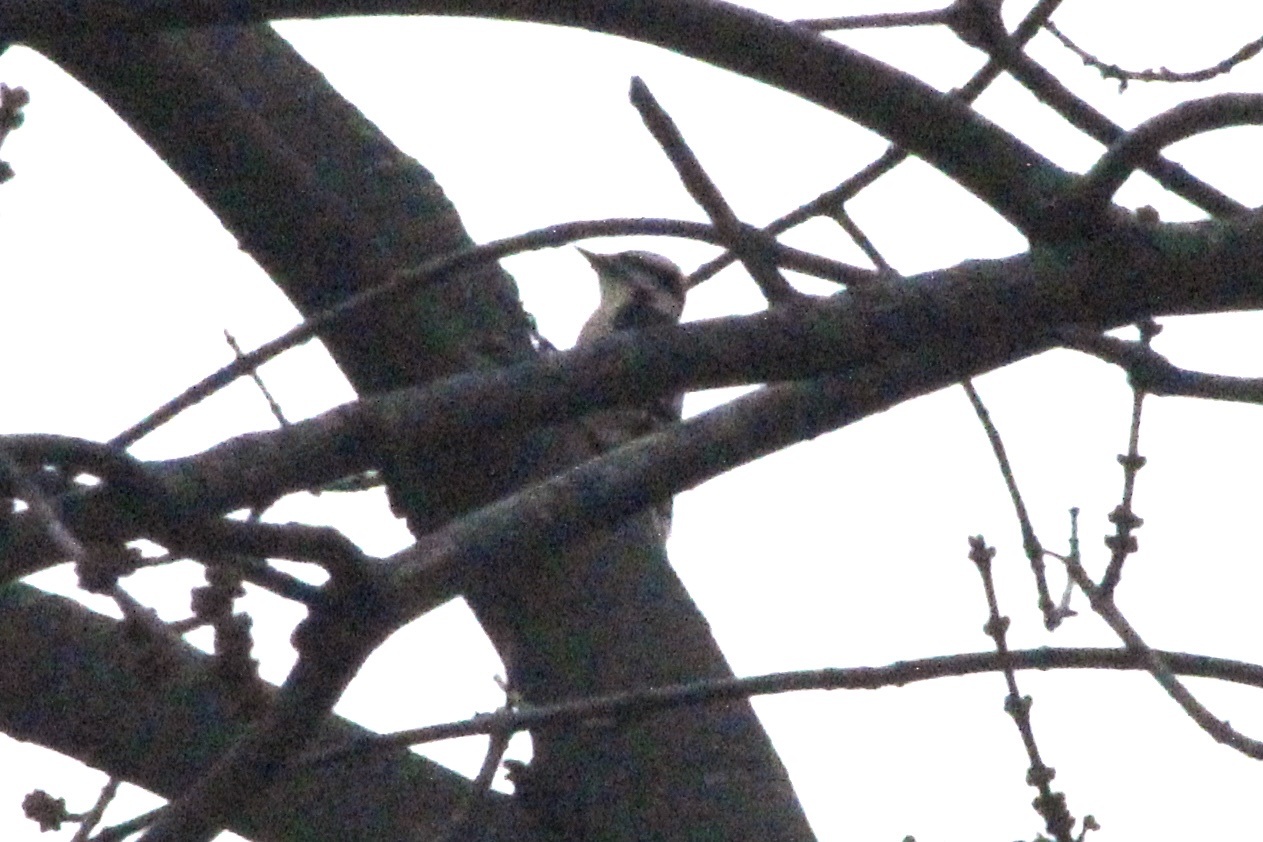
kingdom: Animalia
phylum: Chordata
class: Aves
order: Piciformes
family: Picidae
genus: Dryobates
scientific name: Dryobates pubescens
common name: Downy woodpecker
